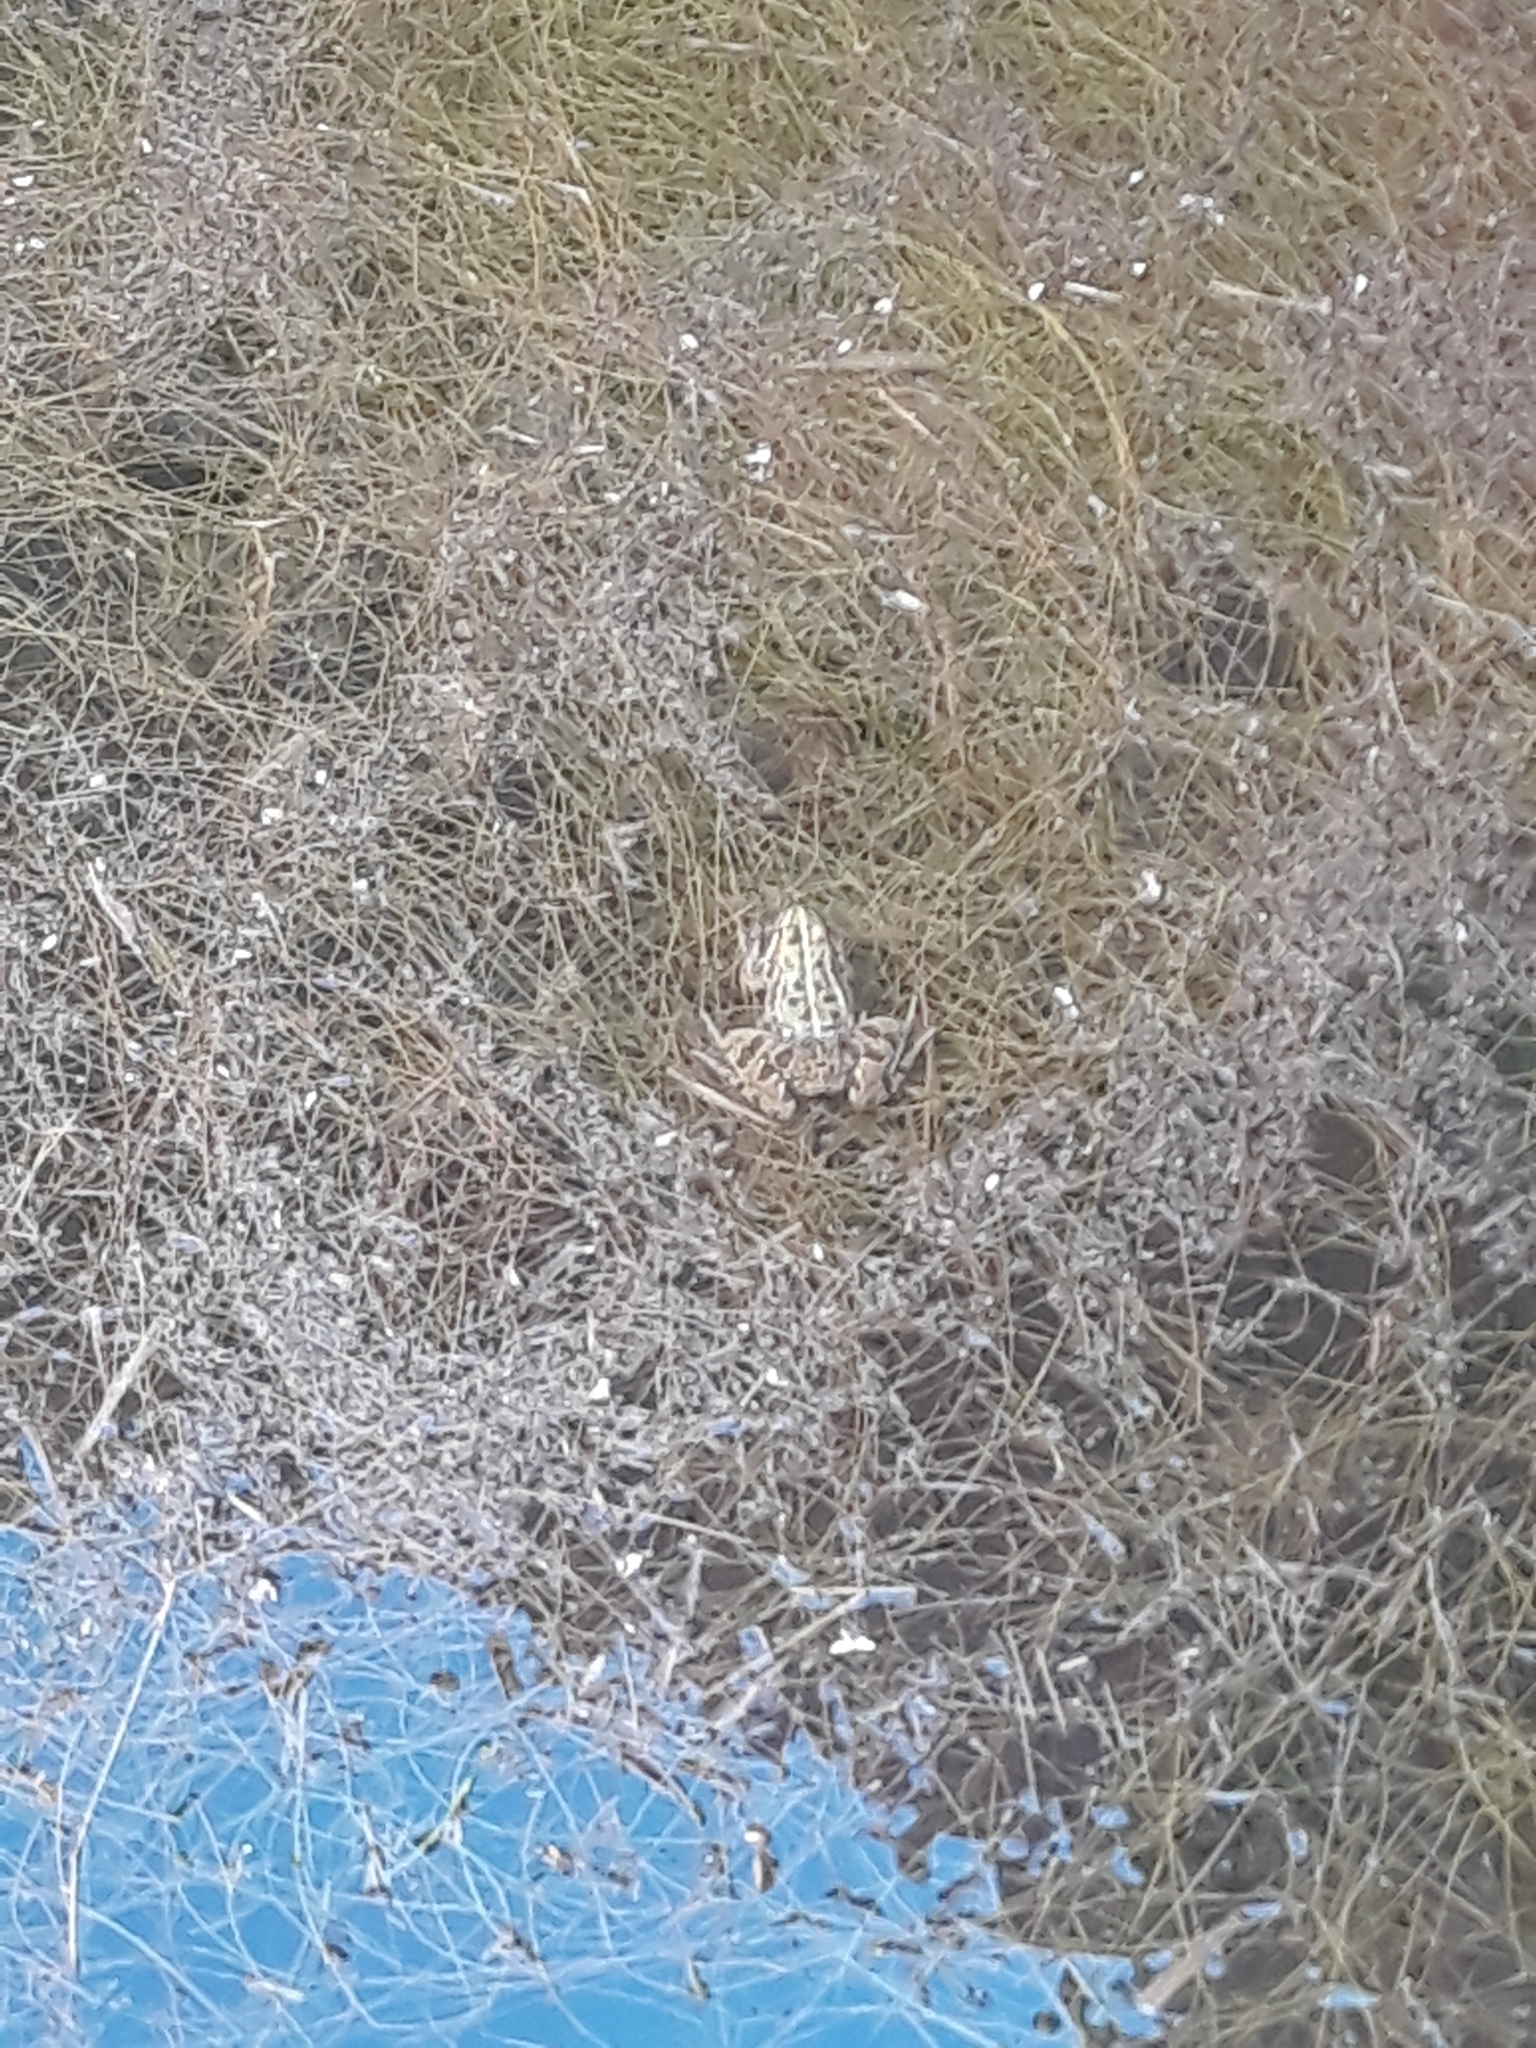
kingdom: Animalia
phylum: Chordata
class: Amphibia
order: Anura
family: Ranidae
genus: Pelophylax
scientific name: Pelophylax saharicus
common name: Sahara frog
